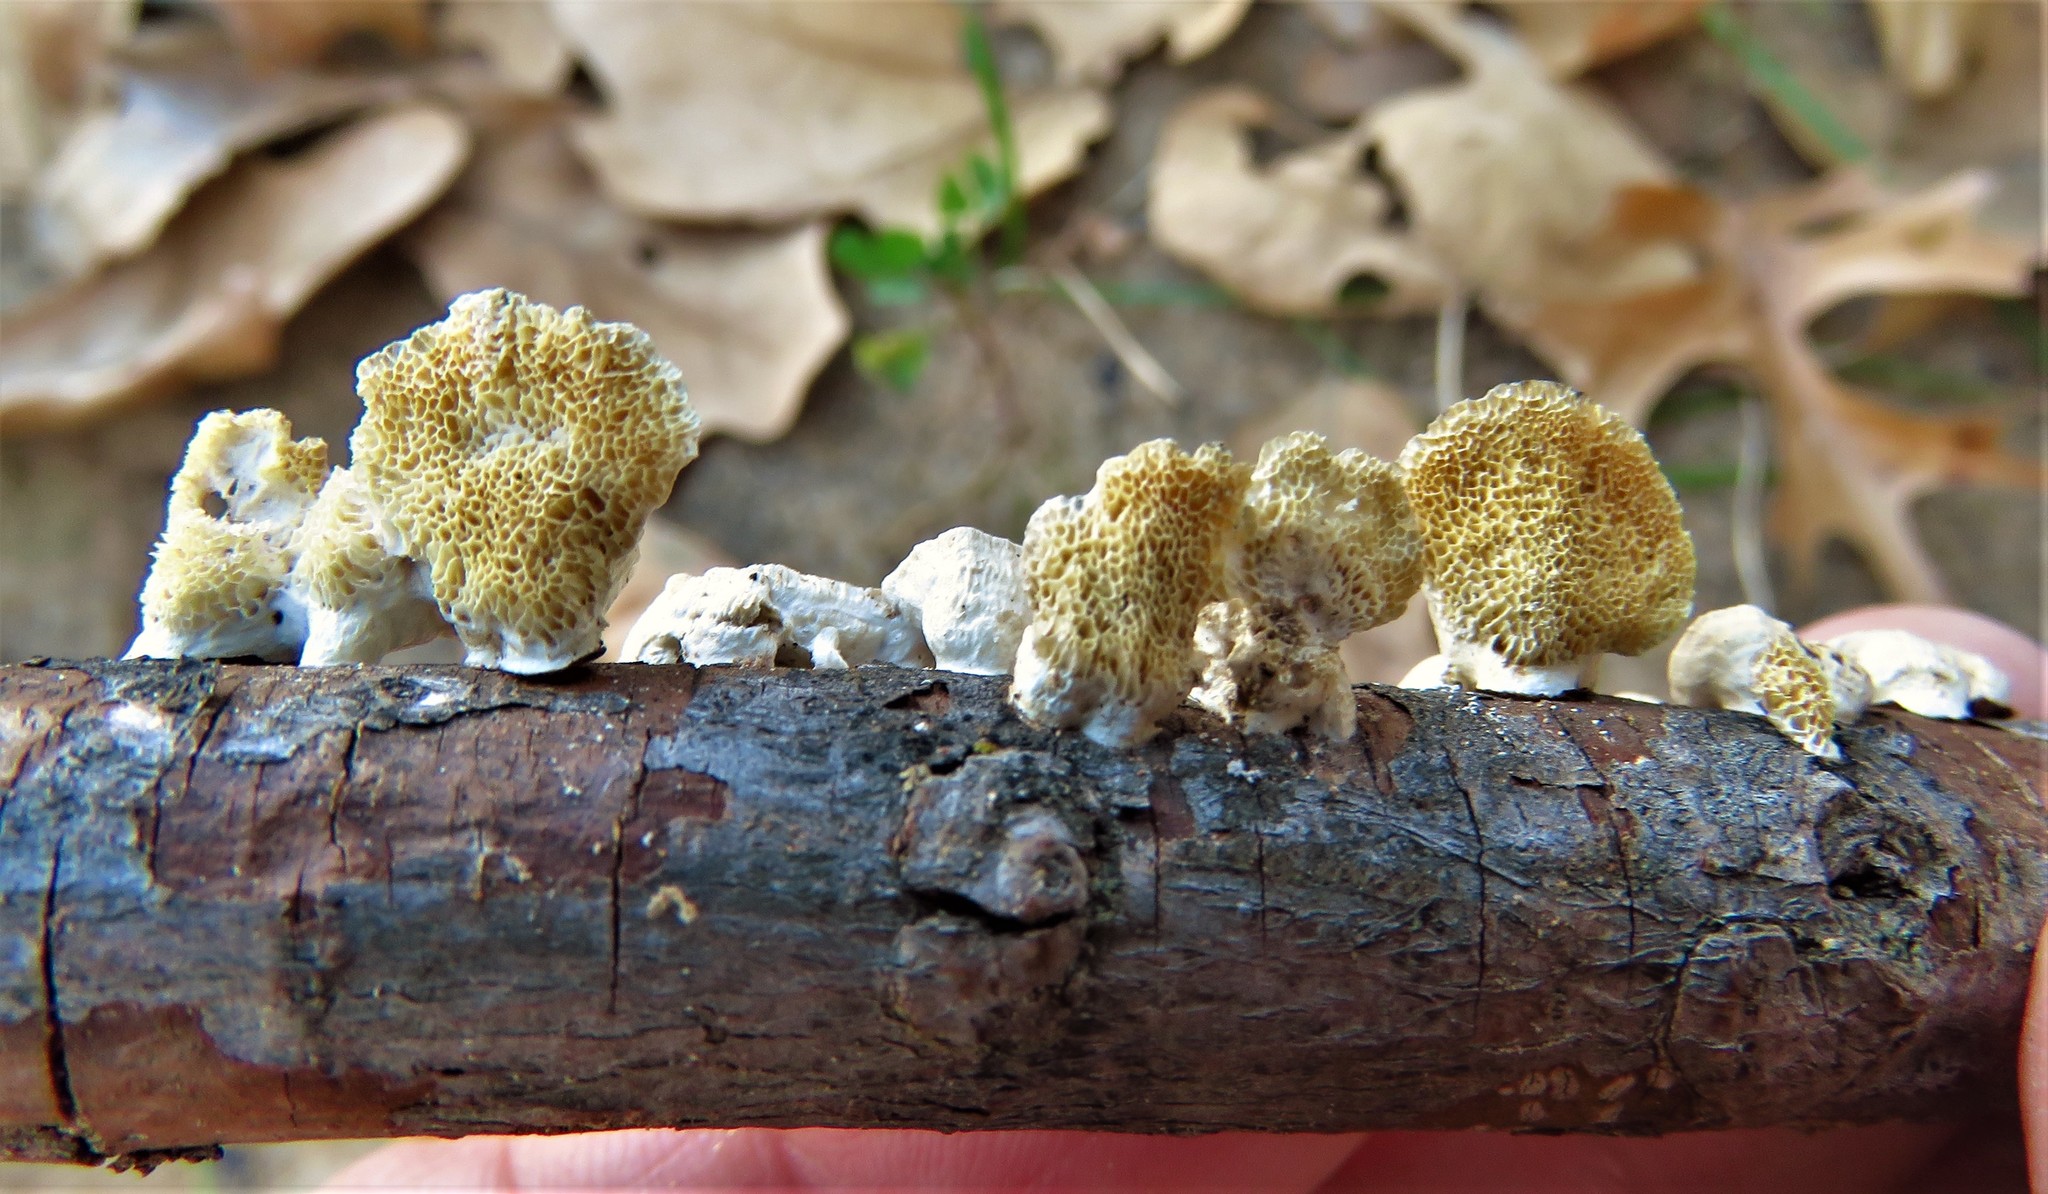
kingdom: Fungi
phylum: Basidiomycota
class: Agaricomycetes
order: Polyporales
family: Polyporaceae
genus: Poronidulus
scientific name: Poronidulus conchifer
